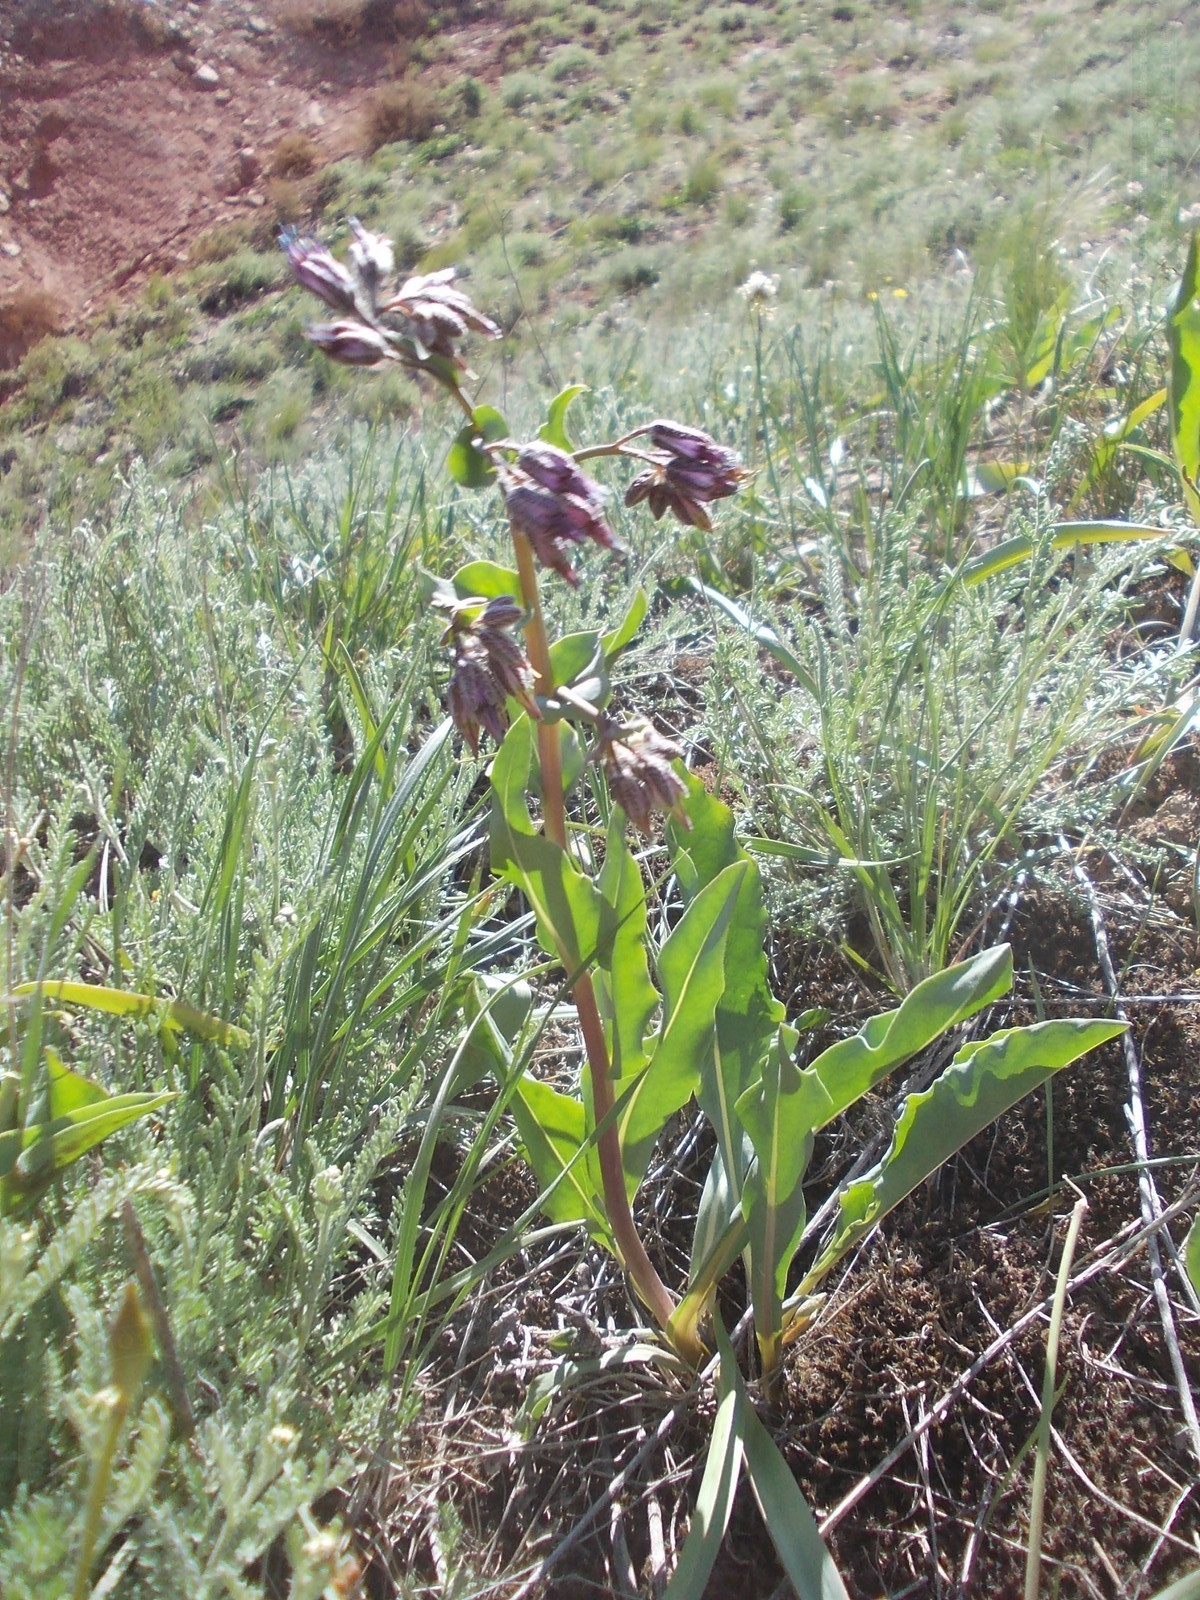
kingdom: Plantae
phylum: Tracheophyta
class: Magnoliopsida
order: Boraginales
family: Boraginaceae
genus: Rindera
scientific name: Rindera tetraspis
